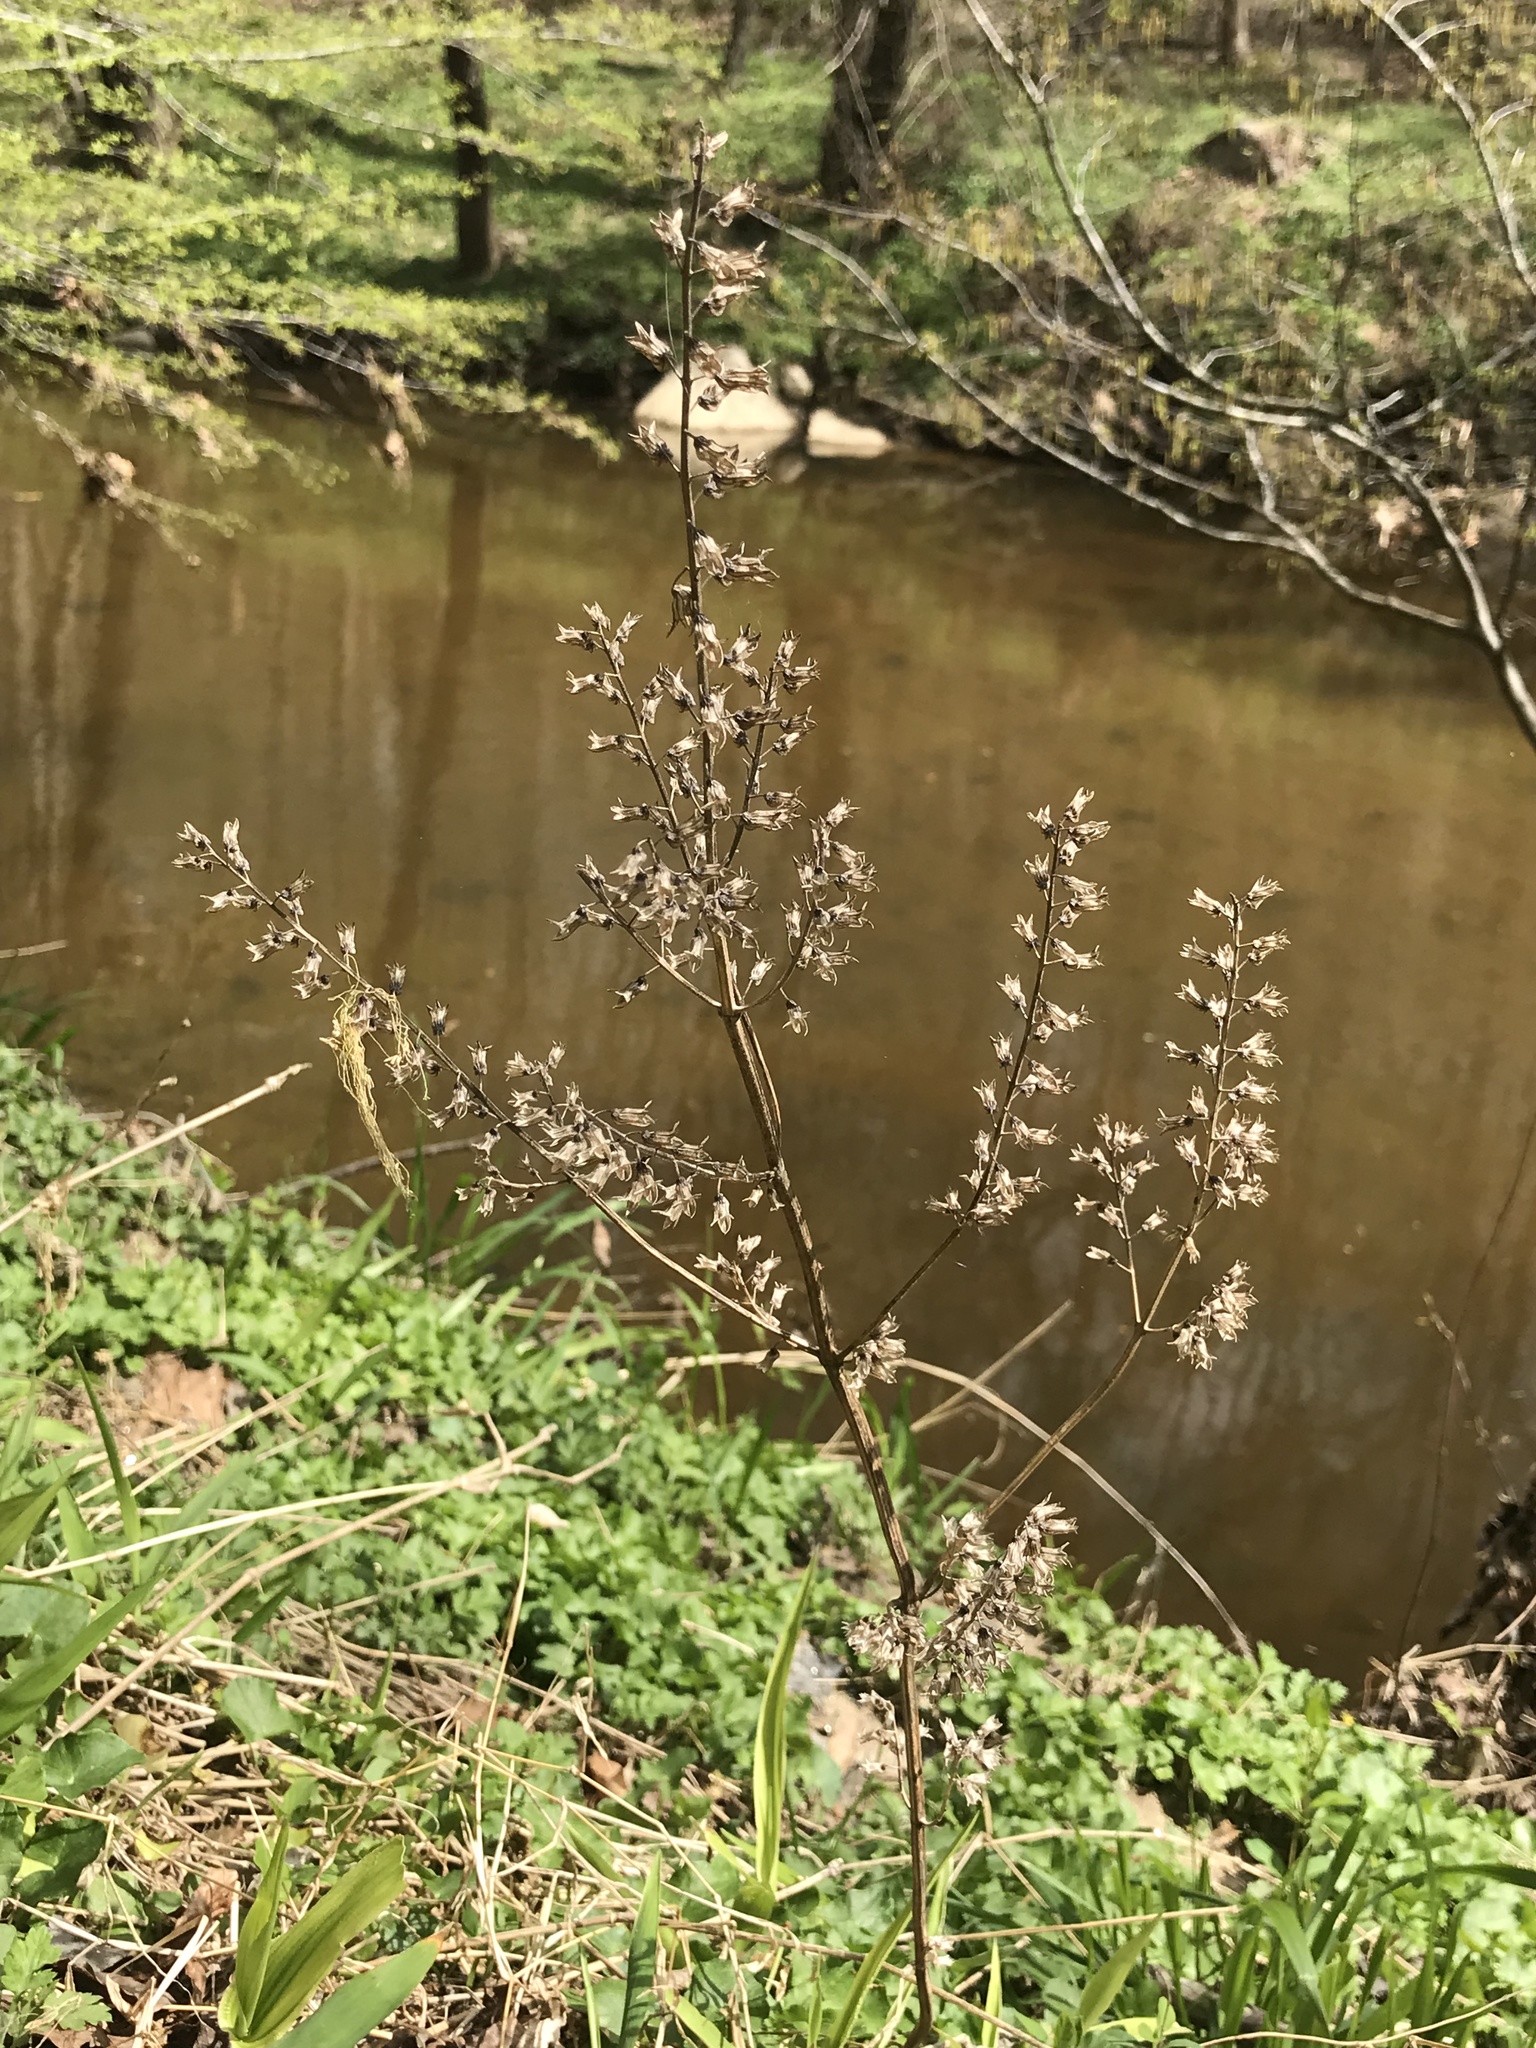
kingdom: Plantae
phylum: Tracheophyta
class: Magnoliopsida
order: Lamiales
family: Lamiaceae
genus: Perilla
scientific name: Perilla frutescens
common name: Perilla
